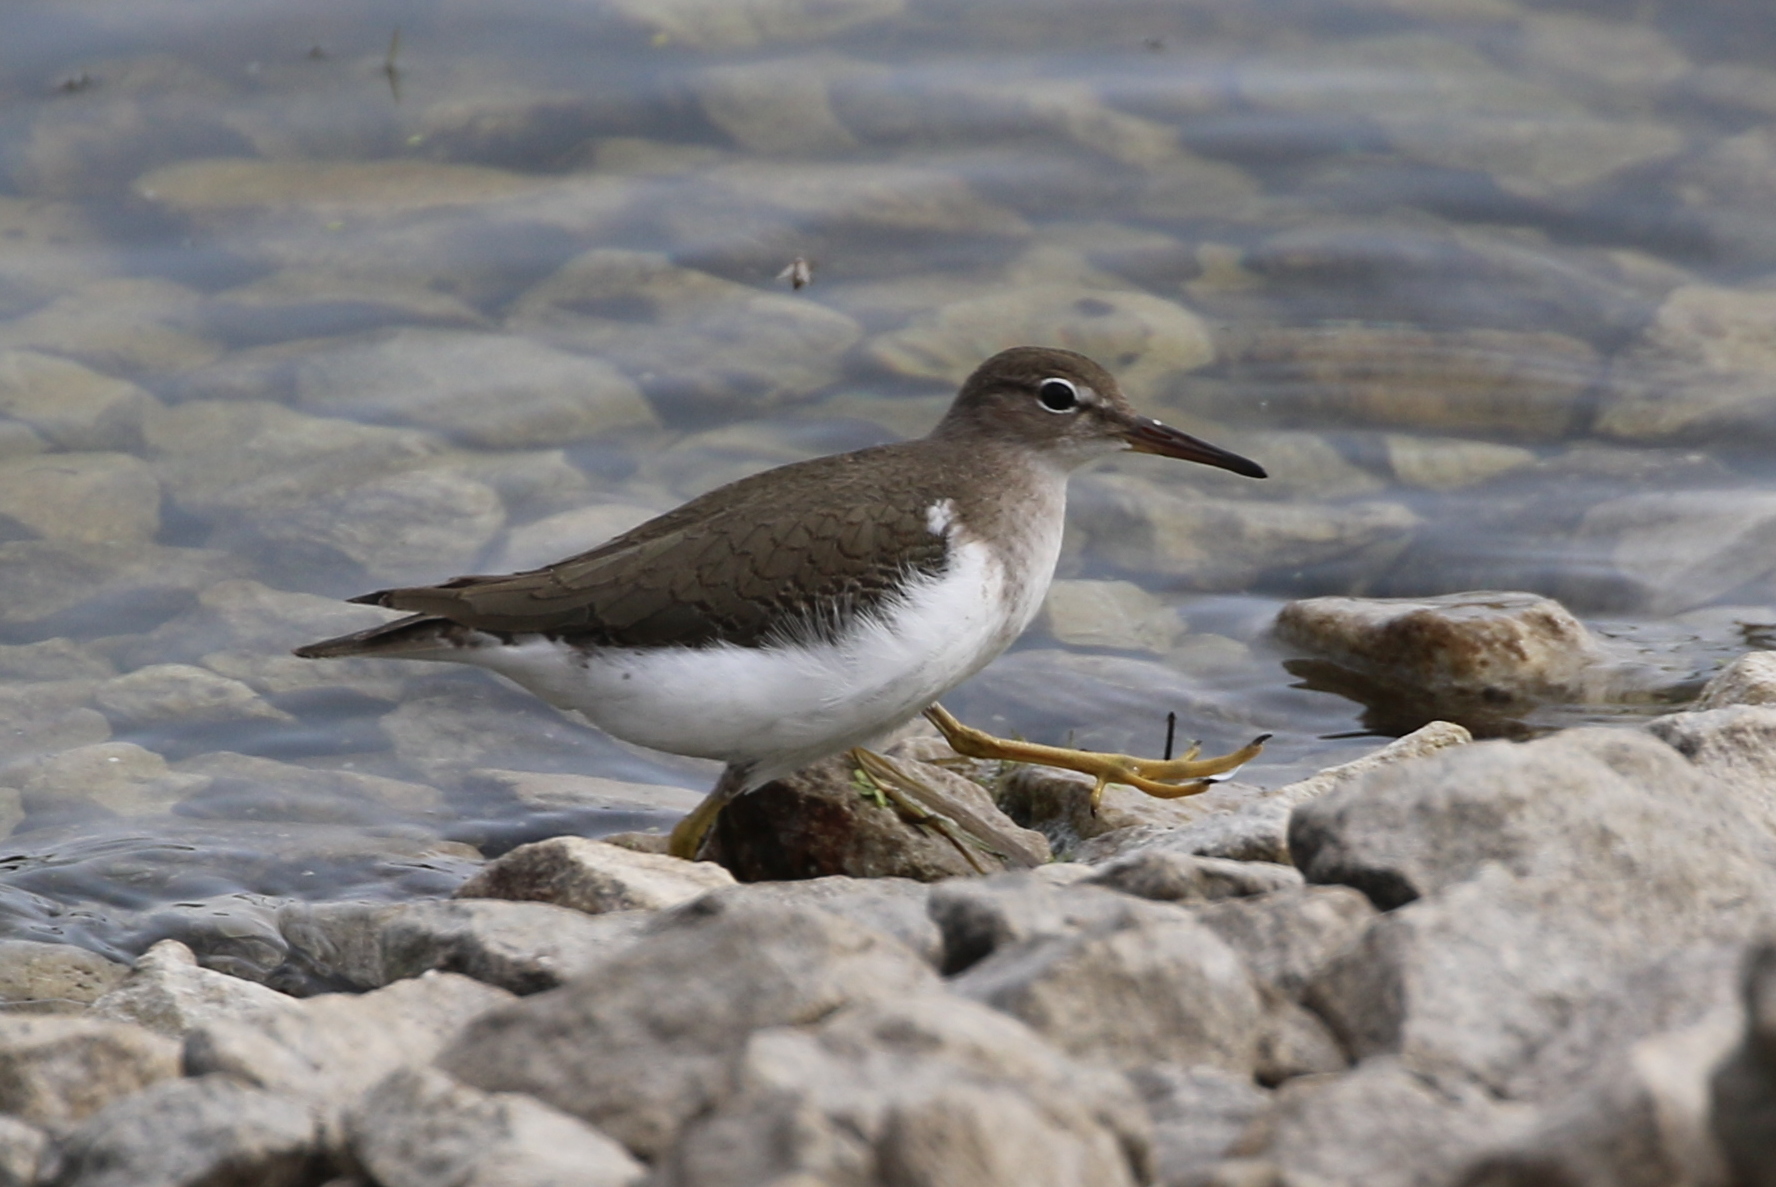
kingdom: Animalia
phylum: Chordata
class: Aves
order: Charadriiformes
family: Scolopacidae
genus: Actitis
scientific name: Actitis macularius
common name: Spotted sandpiper
